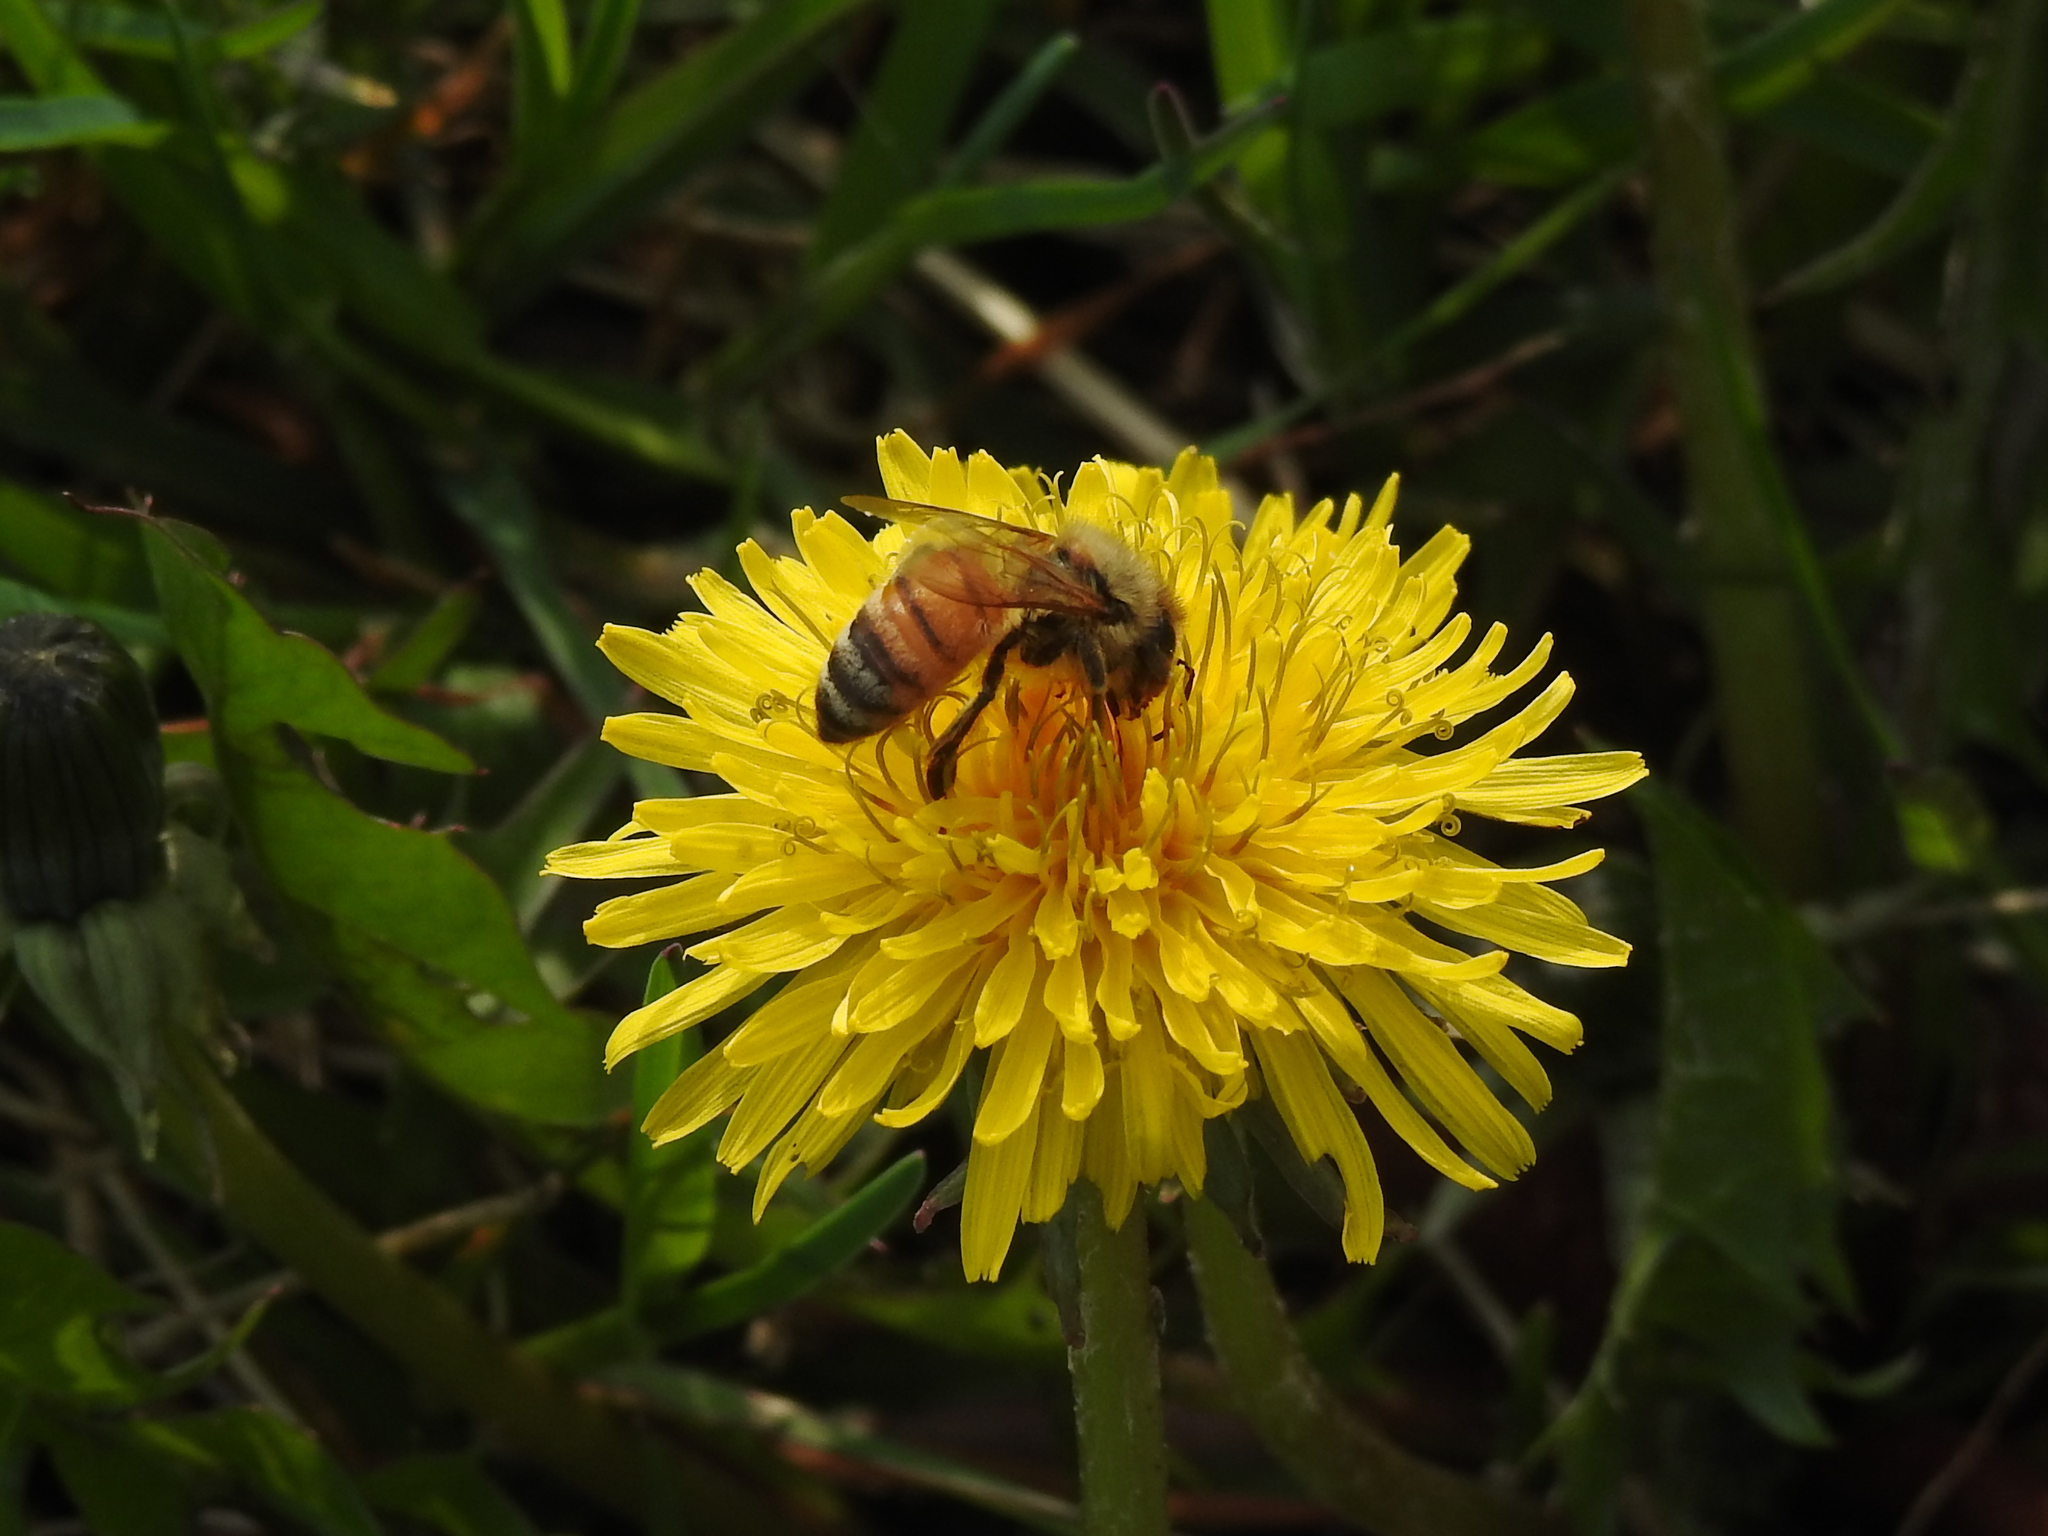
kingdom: Animalia
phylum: Arthropoda
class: Insecta
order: Hymenoptera
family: Apidae
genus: Apis
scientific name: Apis mellifera
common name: Honey bee
